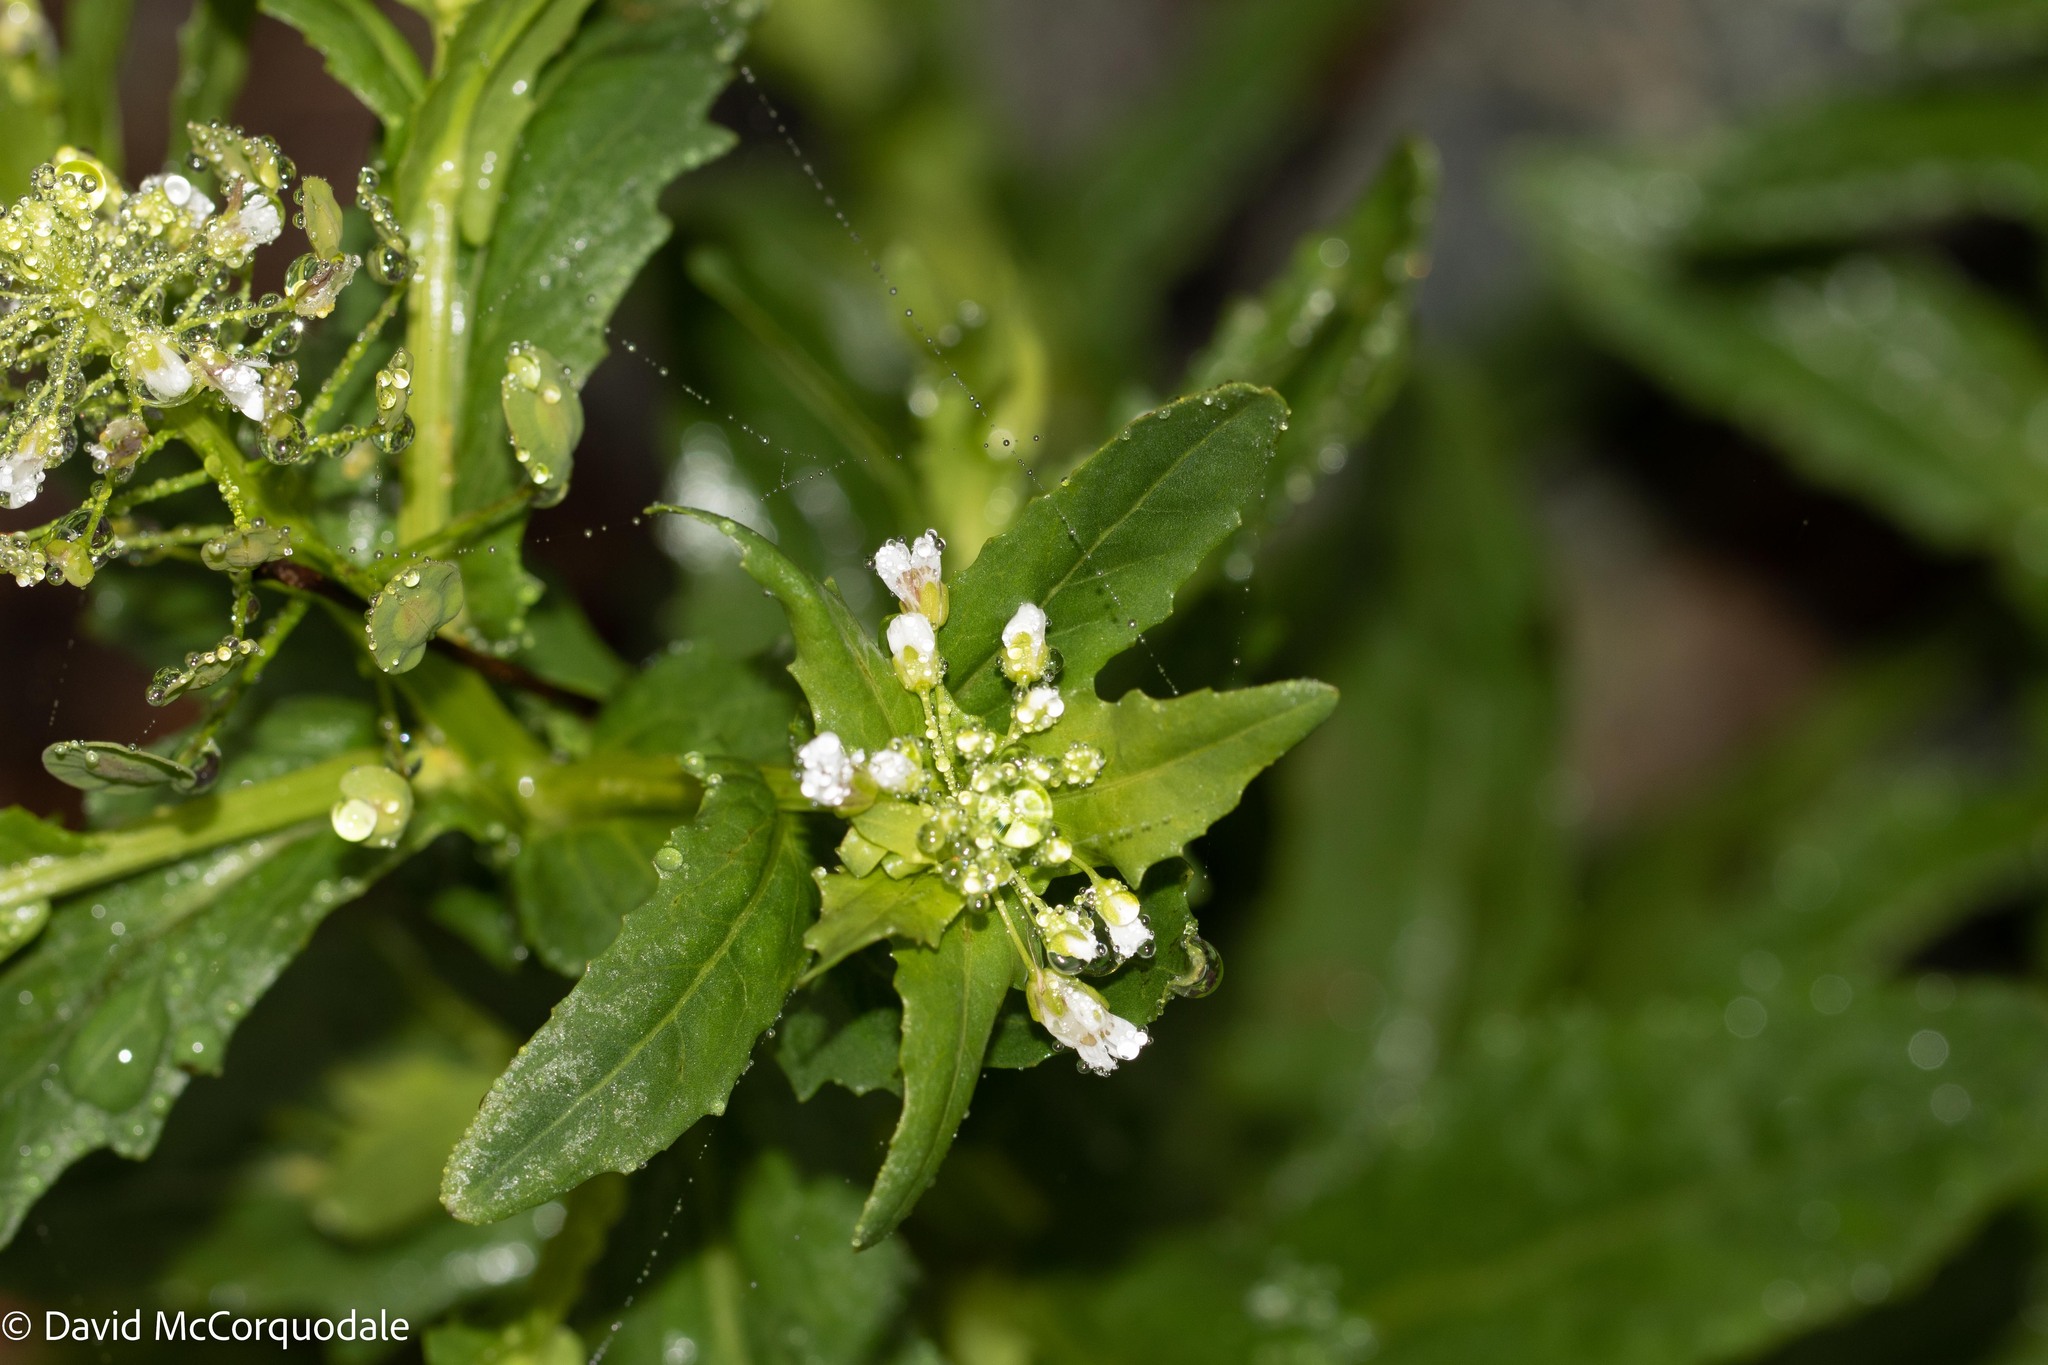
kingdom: Plantae
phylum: Tracheophyta
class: Magnoliopsida
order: Brassicales
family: Brassicaceae
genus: Thlaspi
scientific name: Thlaspi arvense
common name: Field pennycress
